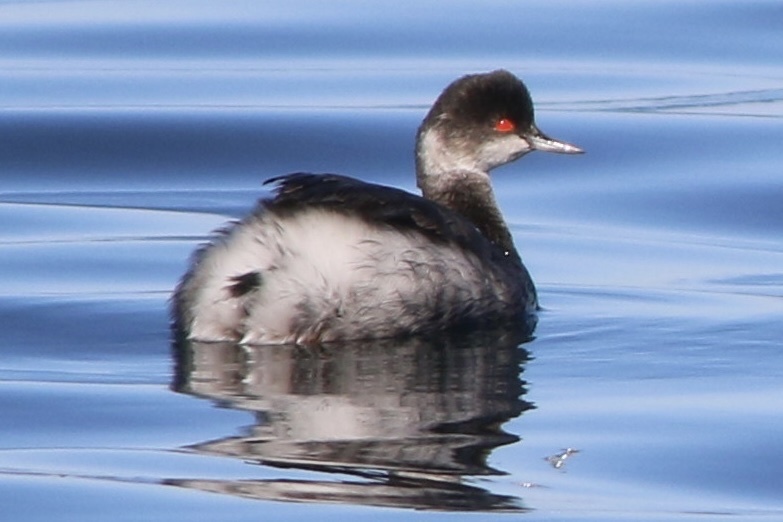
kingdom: Animalia
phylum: Chordata
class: Aves
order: Podicipediformes
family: Podicipedidae
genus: Podiceps
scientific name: Podiceps nigricollis
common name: Black-necked grebe
